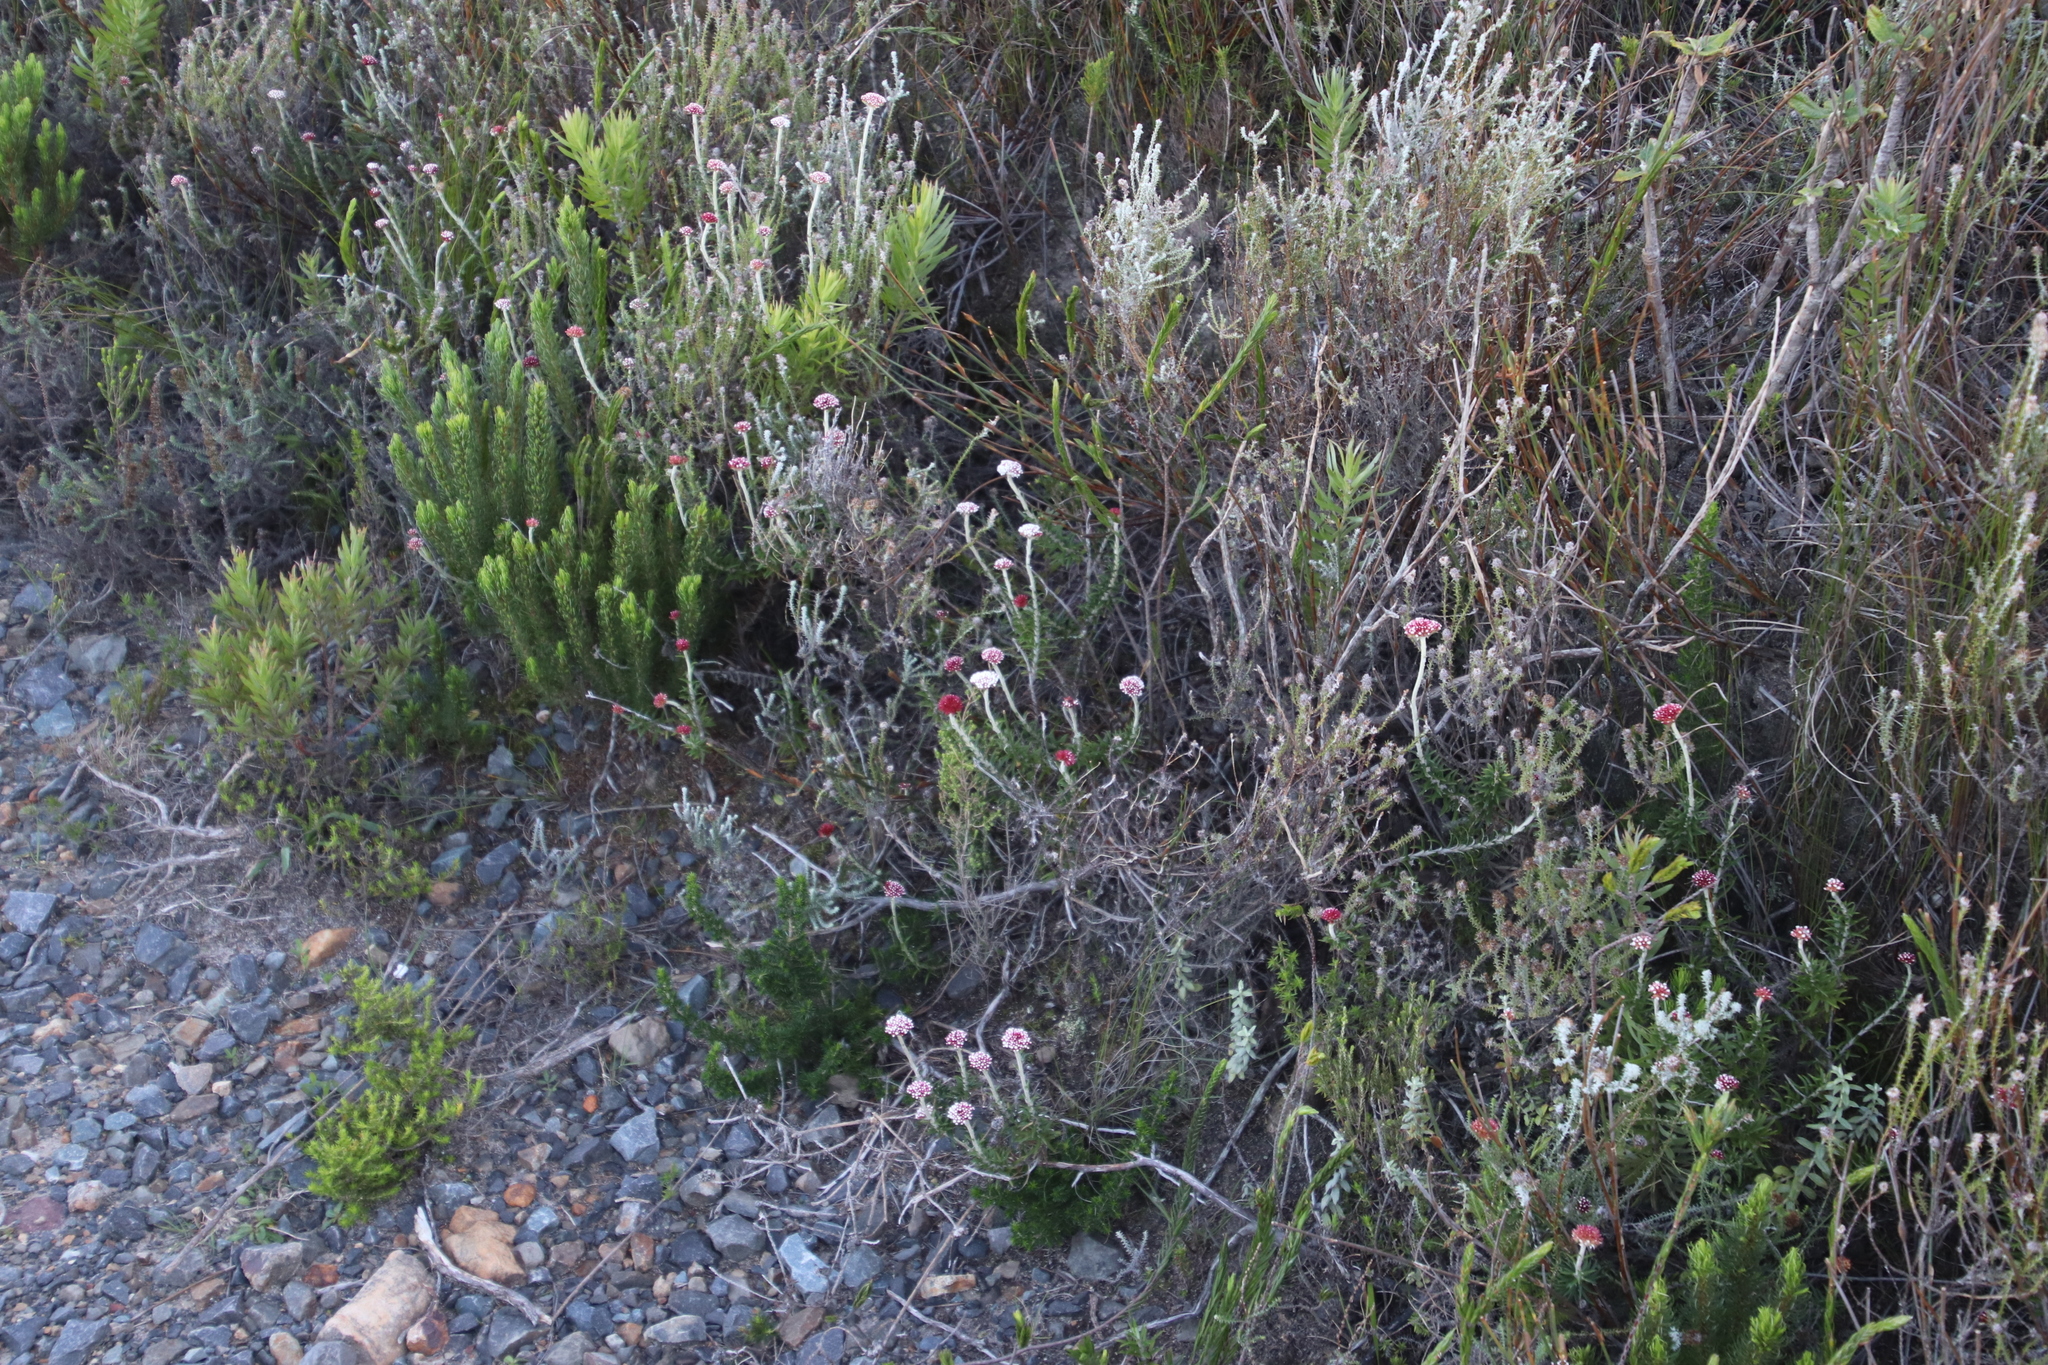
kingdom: Plantae
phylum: Tracheophyta
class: Magnoliopsida
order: Asterales
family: Asteraceae
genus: Anaxeton
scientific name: Anaxeton arborescens
